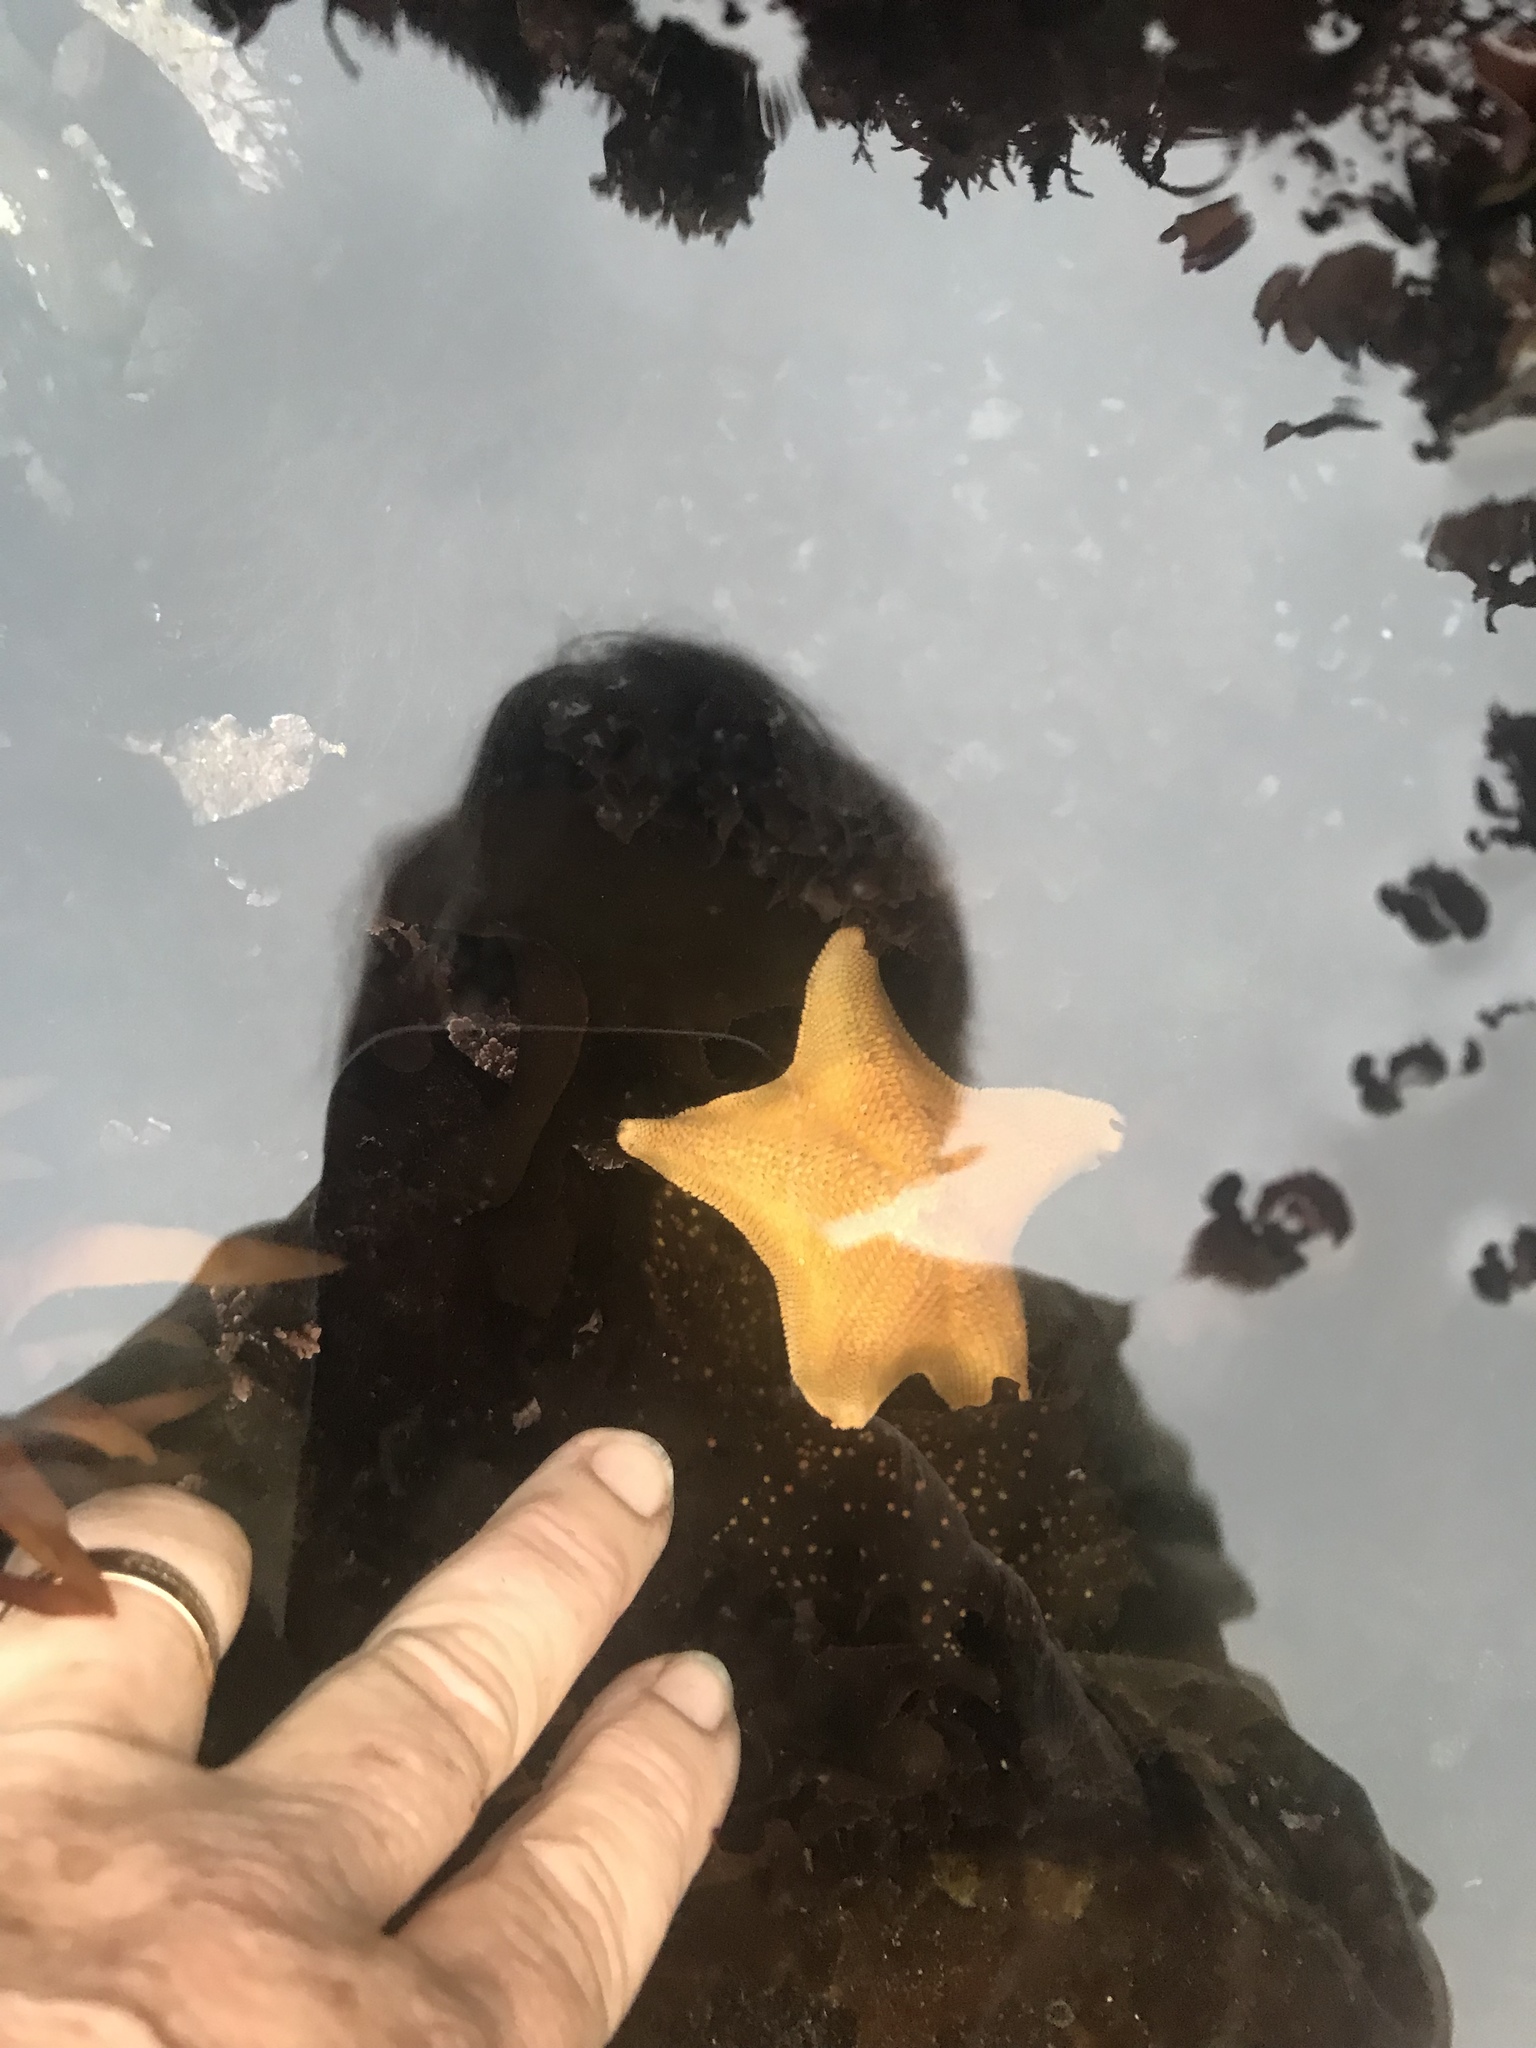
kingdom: Animalia
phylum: Echinodermata
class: Asteroidea
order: Valvatida
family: Asterinidae
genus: Patiria
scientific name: Patiria miniata
